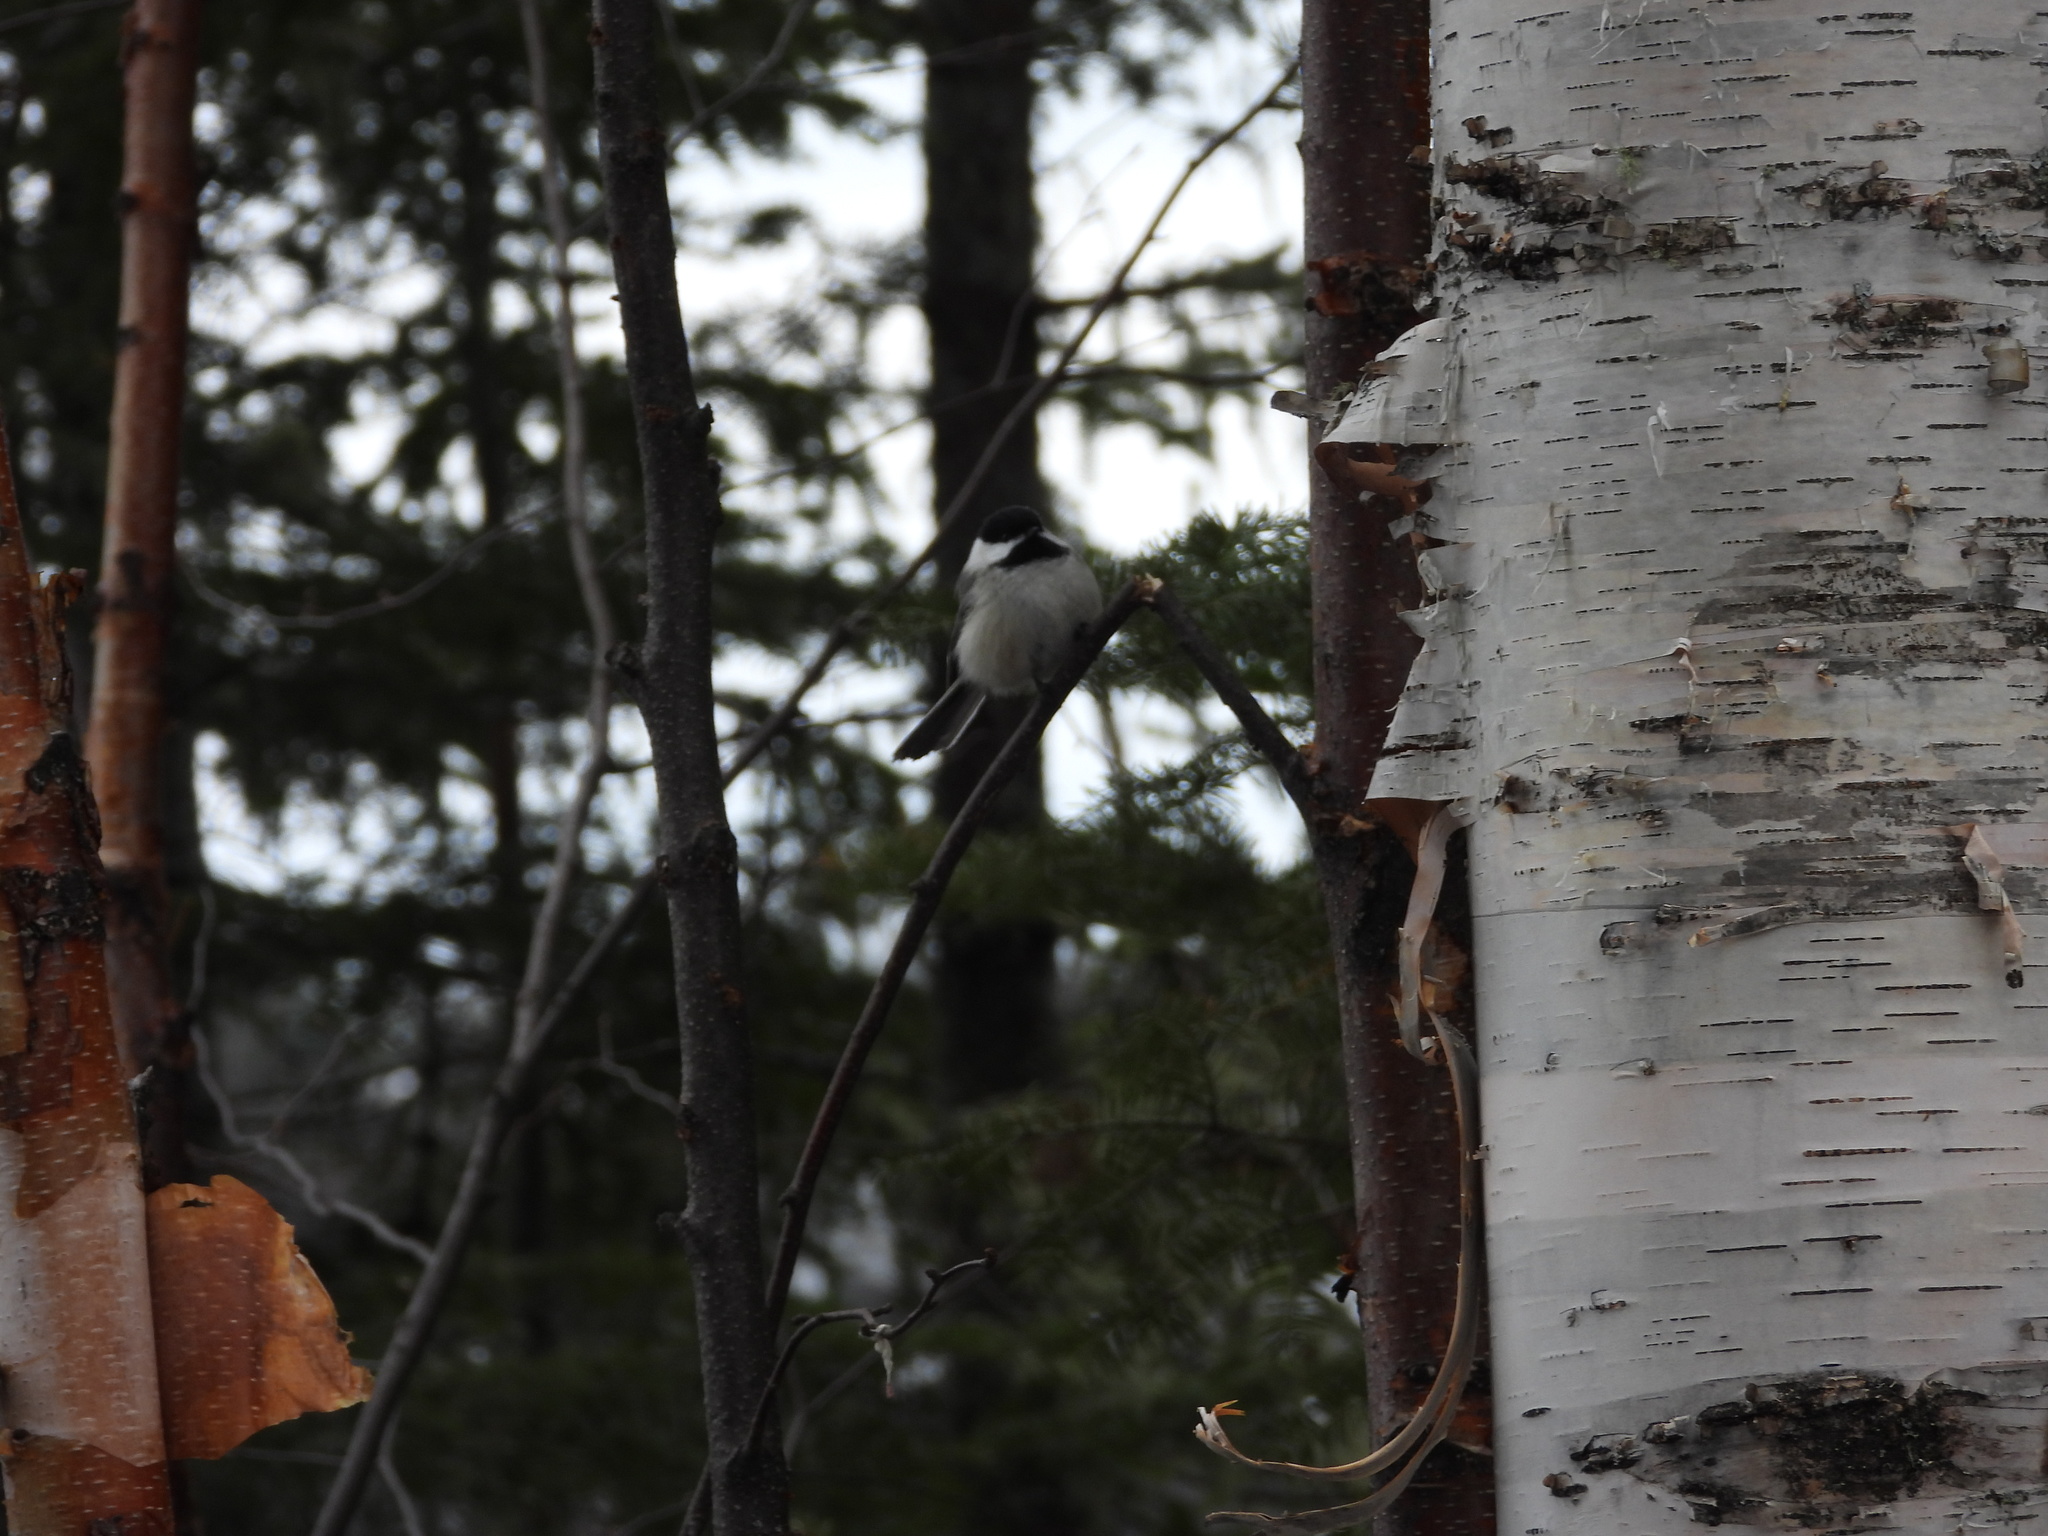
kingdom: Animalia
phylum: Chordata
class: Aves
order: Passeriformes
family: Paridae
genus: Poecile
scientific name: Poecile atricapillus
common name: Black-capped chickadee
